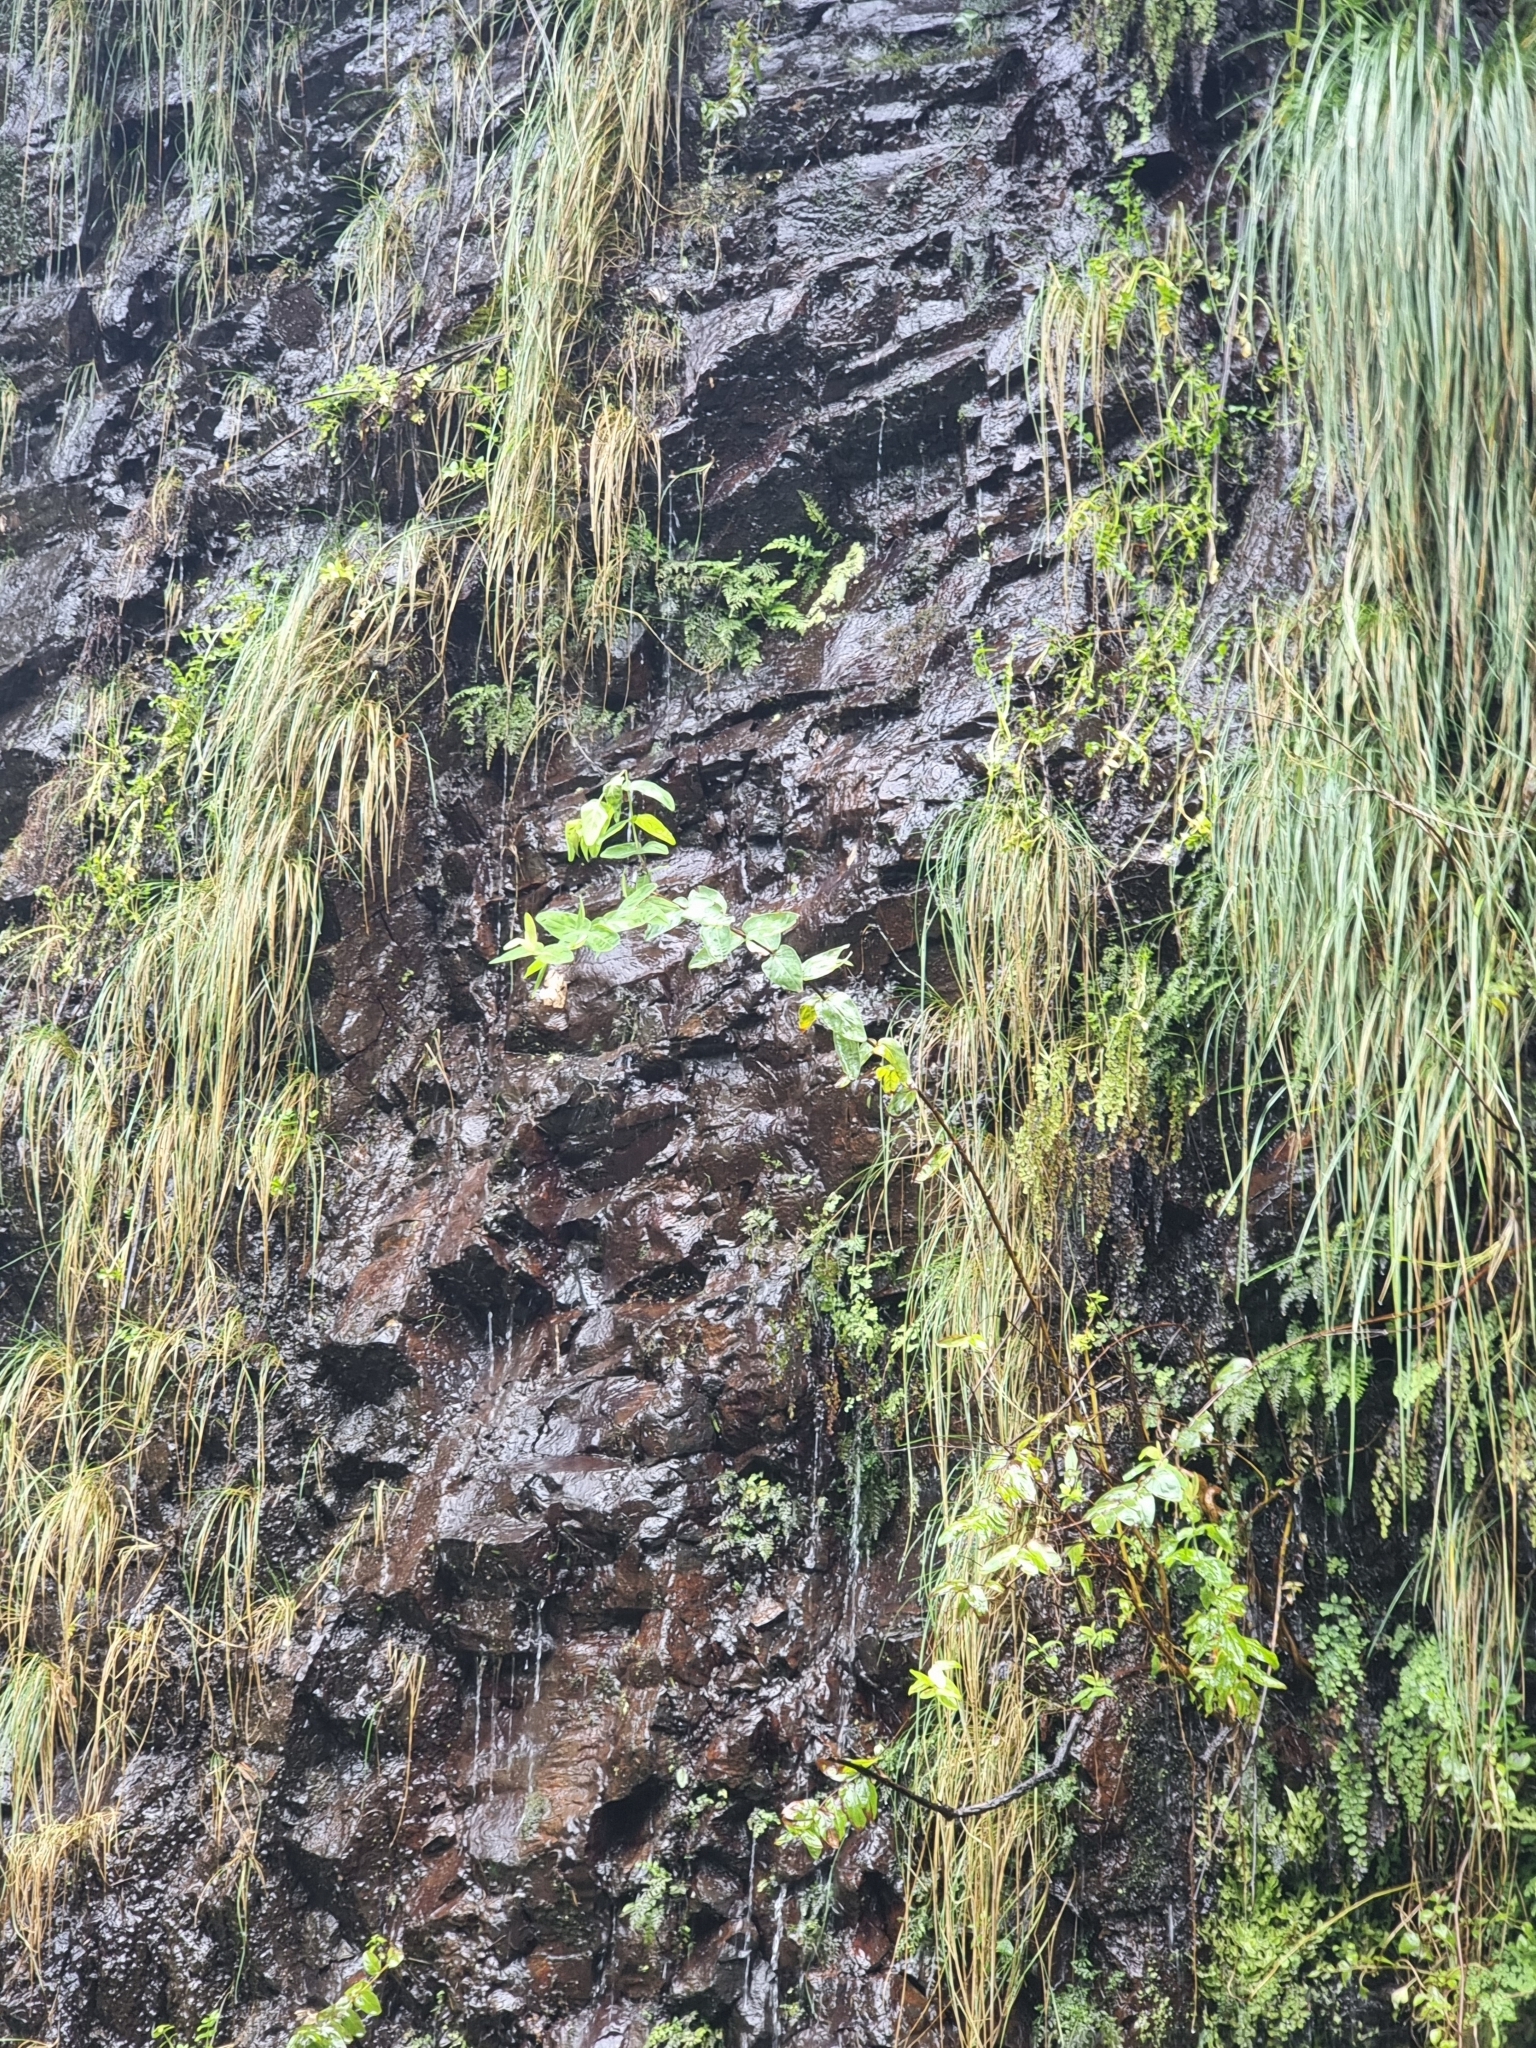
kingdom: Plantae
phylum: Tracheophyta
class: Magnoliopsida
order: Malpighiales
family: Hypericaceae
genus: Hypericum
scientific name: Hypericum grandifolium
